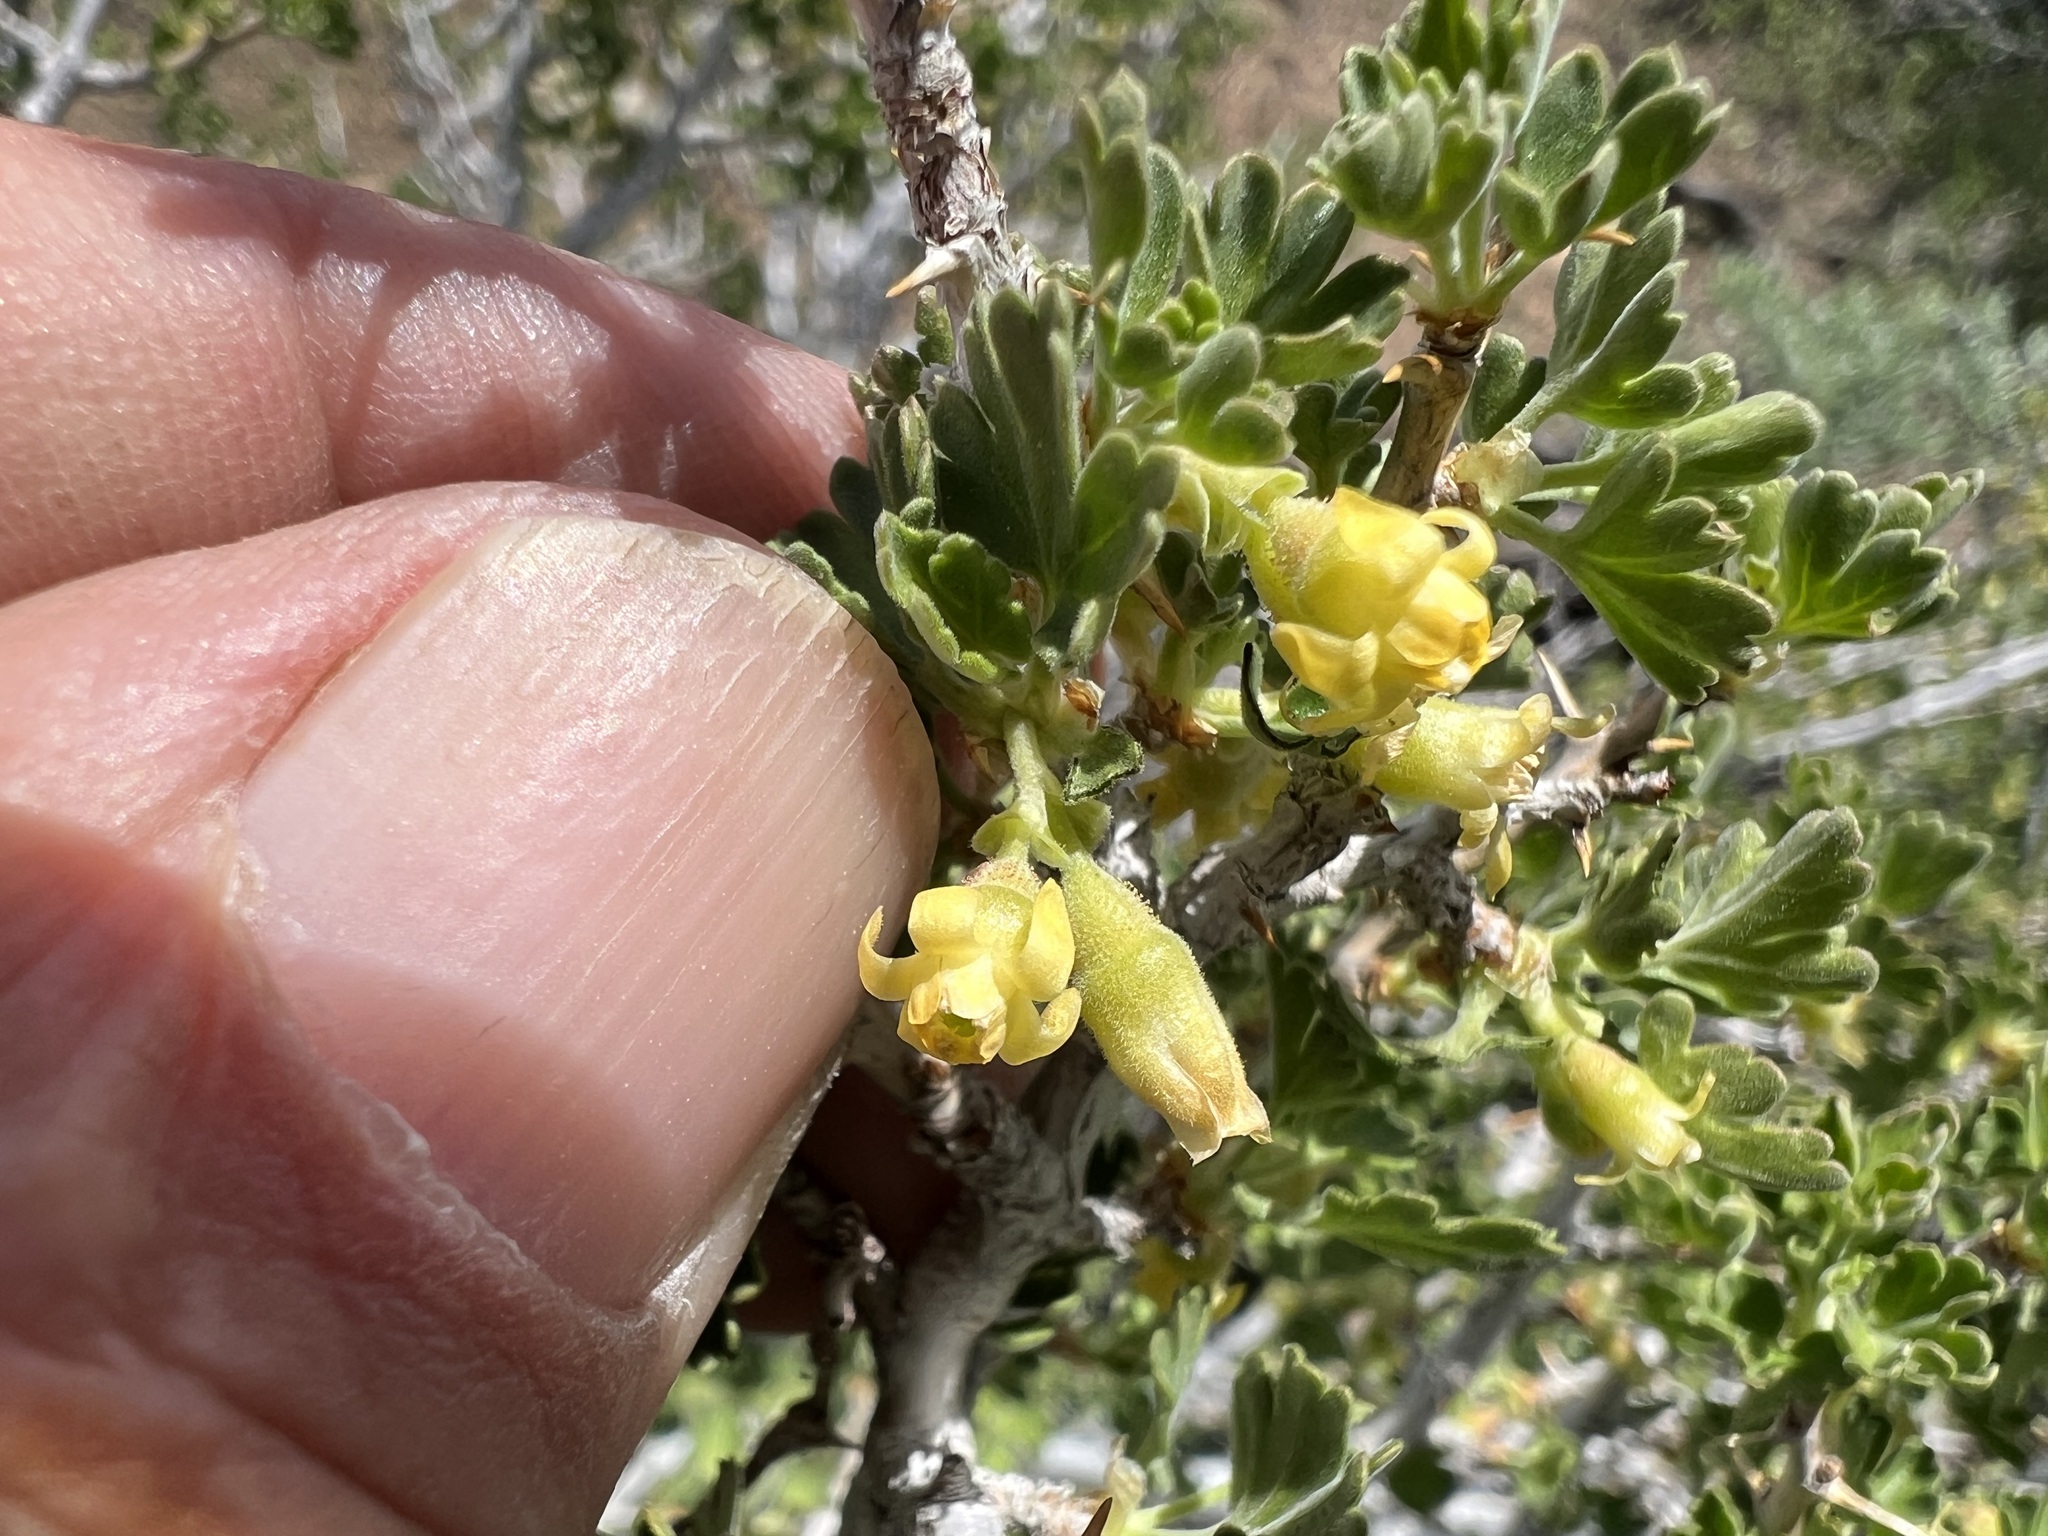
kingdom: Plantae
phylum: Tracheophyta
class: Magnoliopsida
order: Saxifragales
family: Grossulariaceae
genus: Ribes
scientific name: Ribes velutinum
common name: Desert gooseberry
